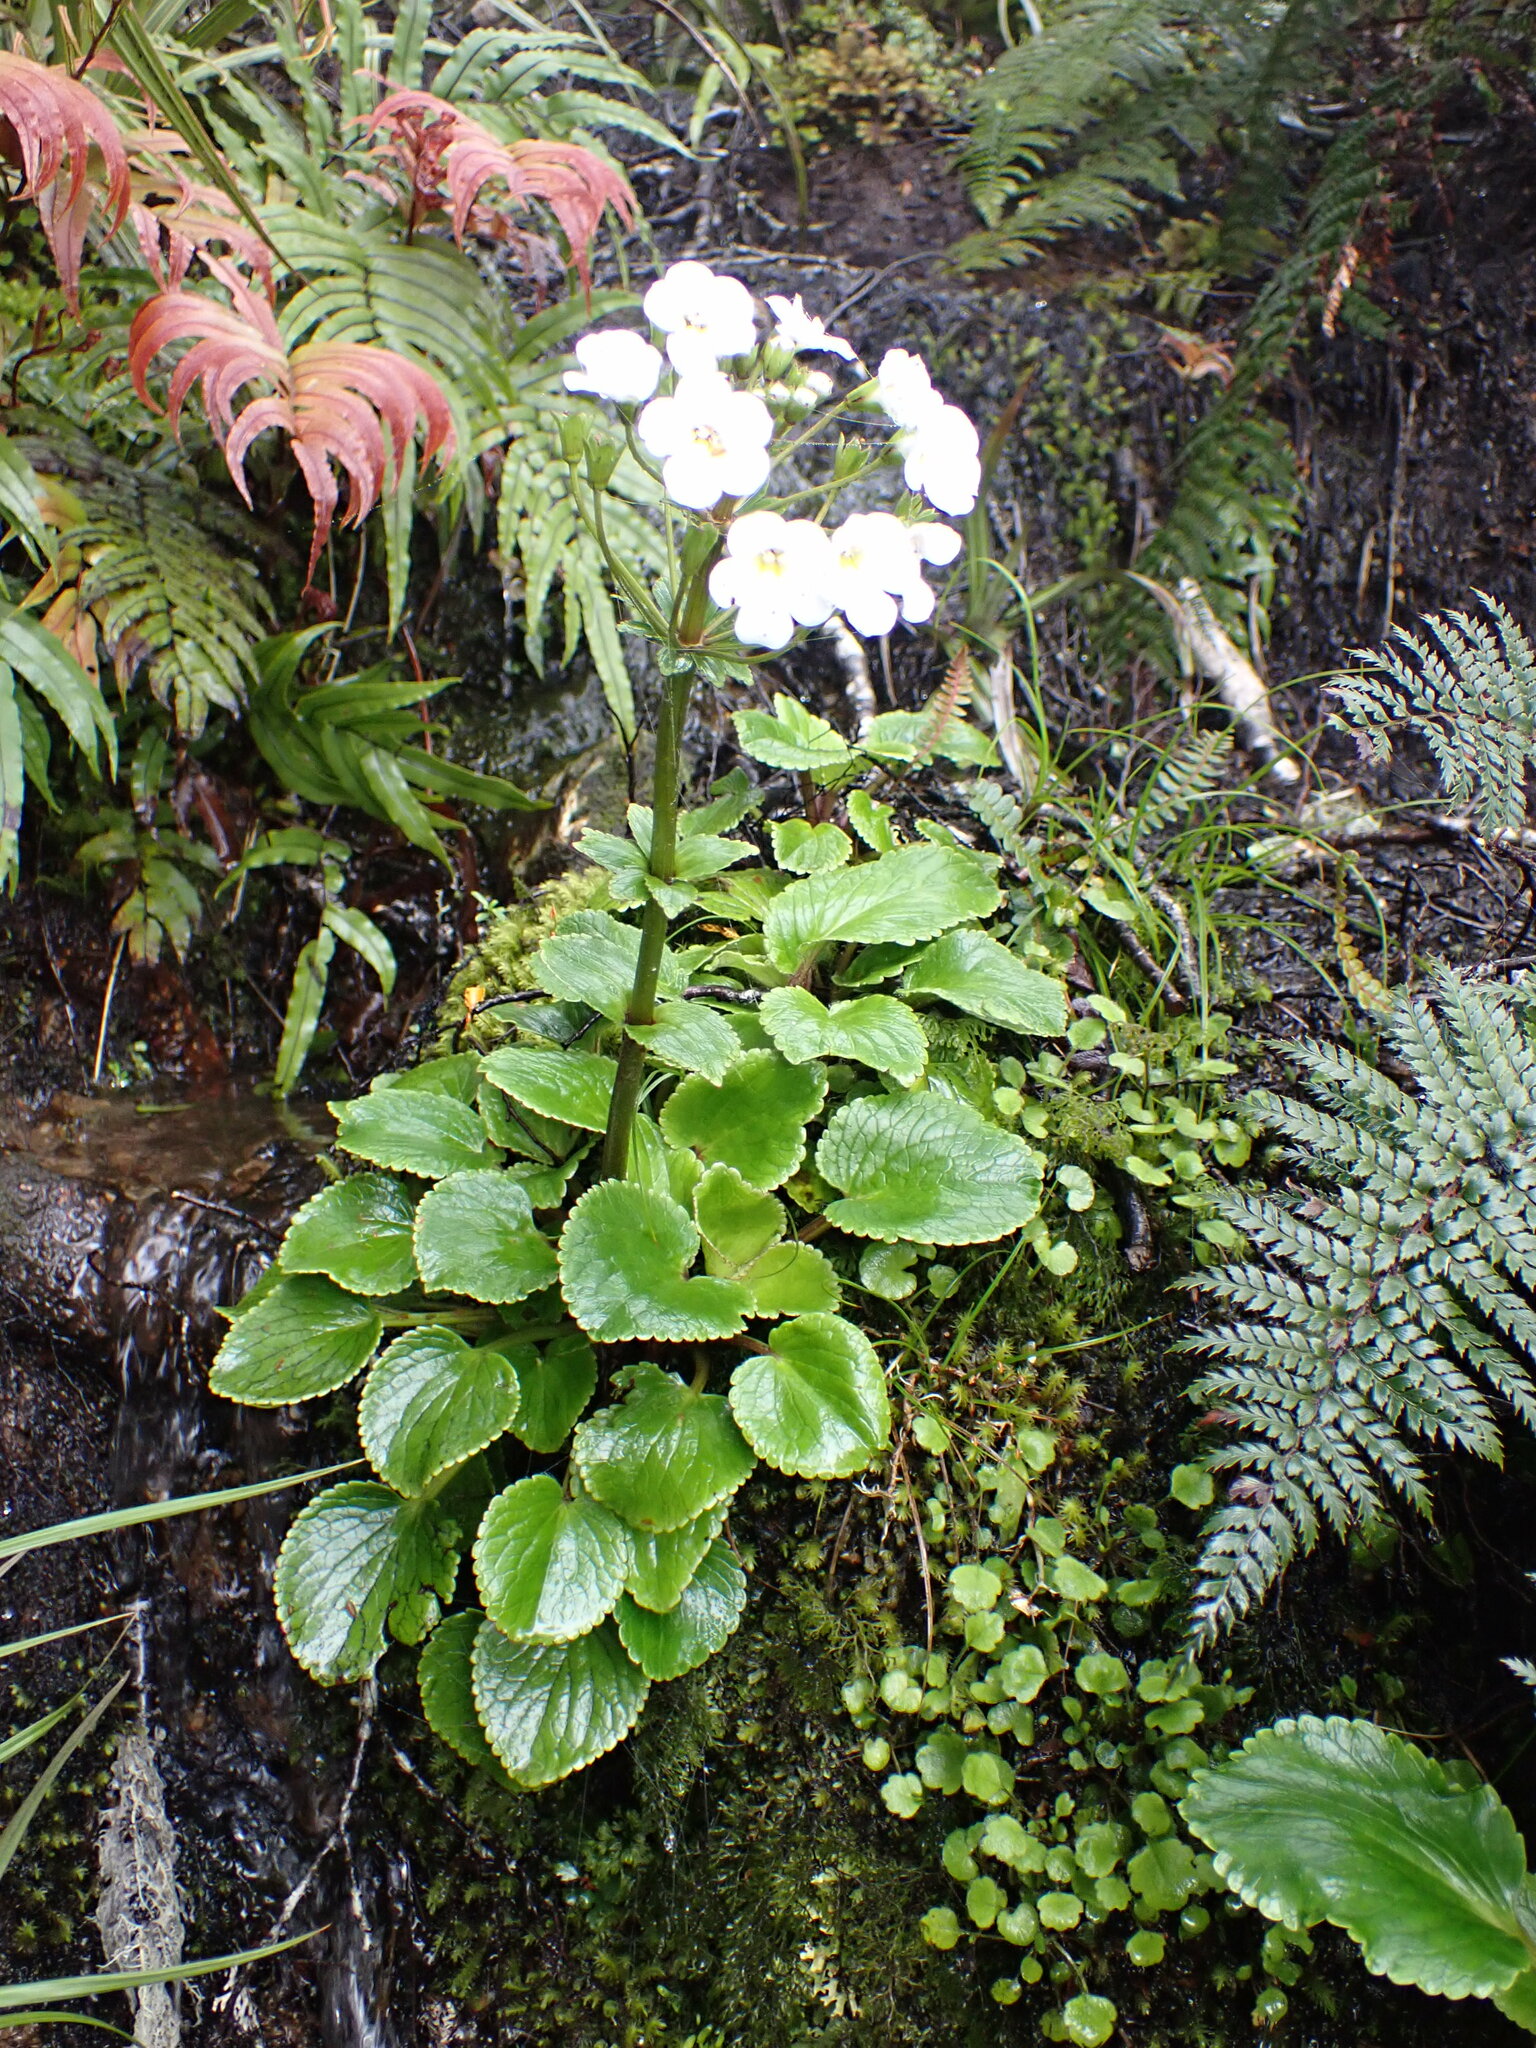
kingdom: Plantae
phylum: Tracheophyta
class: Magnoliopsida
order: Lamiales
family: Plantaginaceae
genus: Ourisia
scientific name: Ourisia macrocarpa
